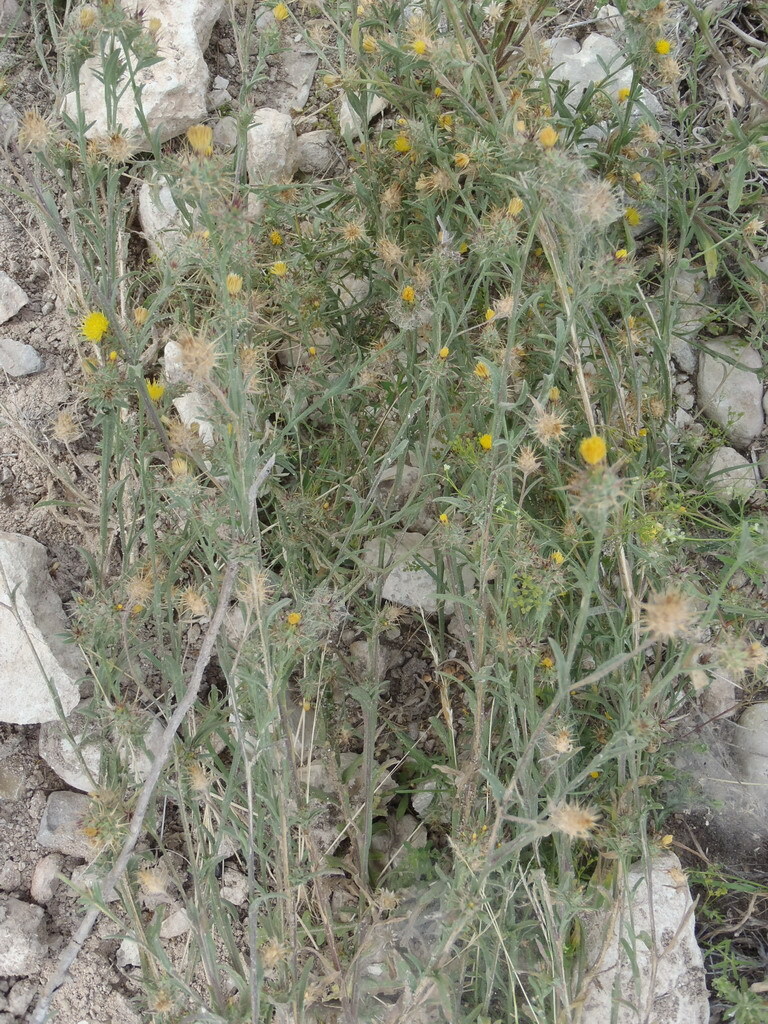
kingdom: Plantae
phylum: Tracheophyta
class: Magnoliopsida
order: Asterales
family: Asteraceae
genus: Centaurea
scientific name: Centaurea melitensis
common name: Maltese star-thistle
